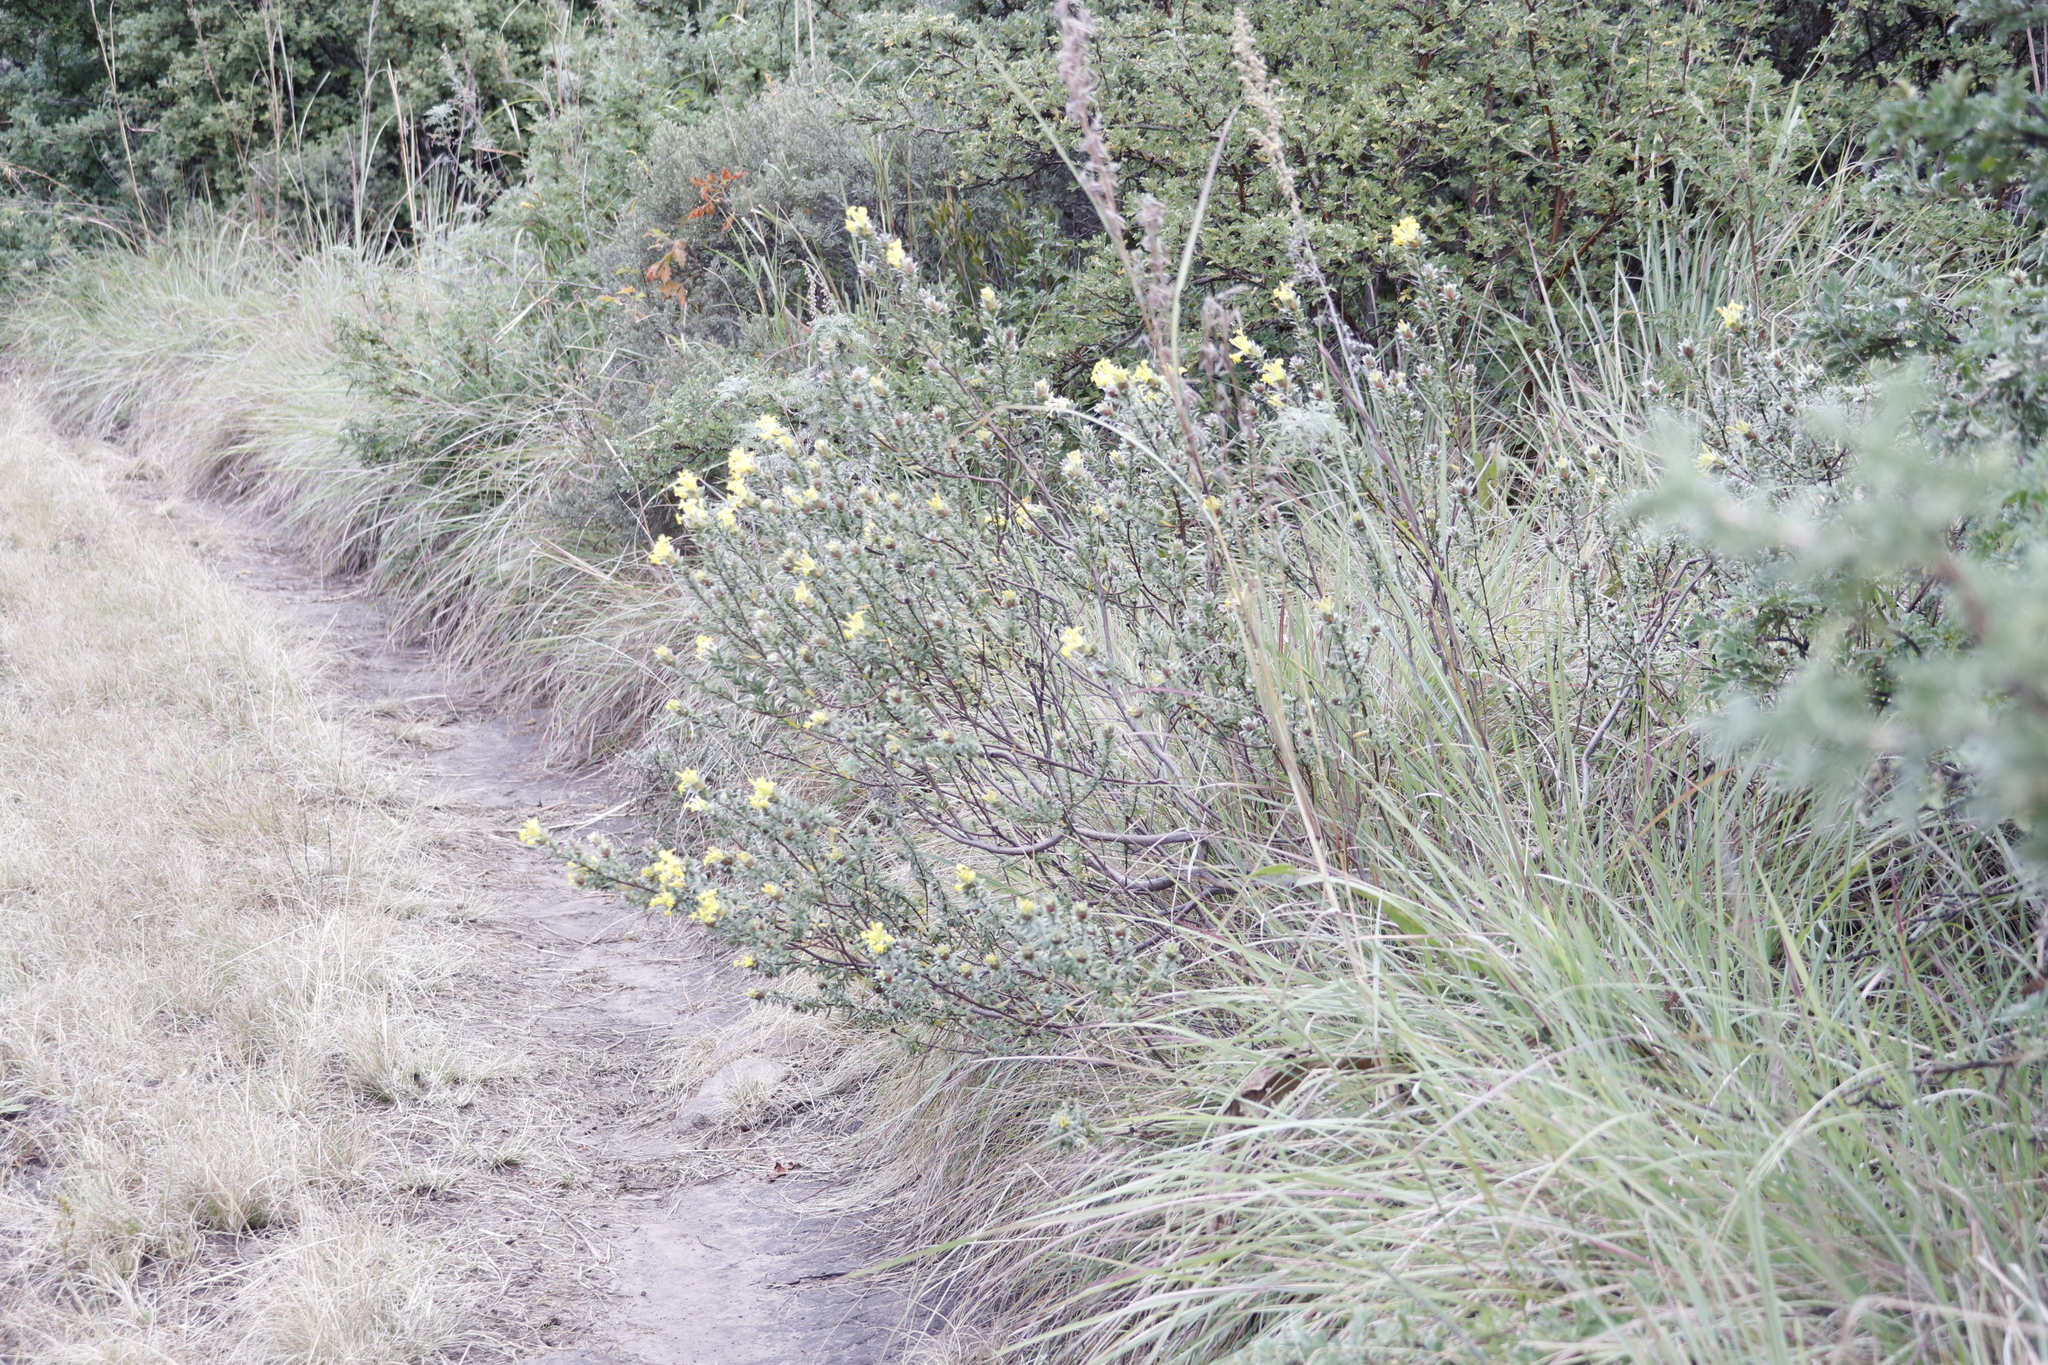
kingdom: Plantae
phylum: Tracheophyta
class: Magnoliopsida
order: Malvales
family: Thymelaeaceae
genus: Gnidia
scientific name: Gnidia anthylloides
